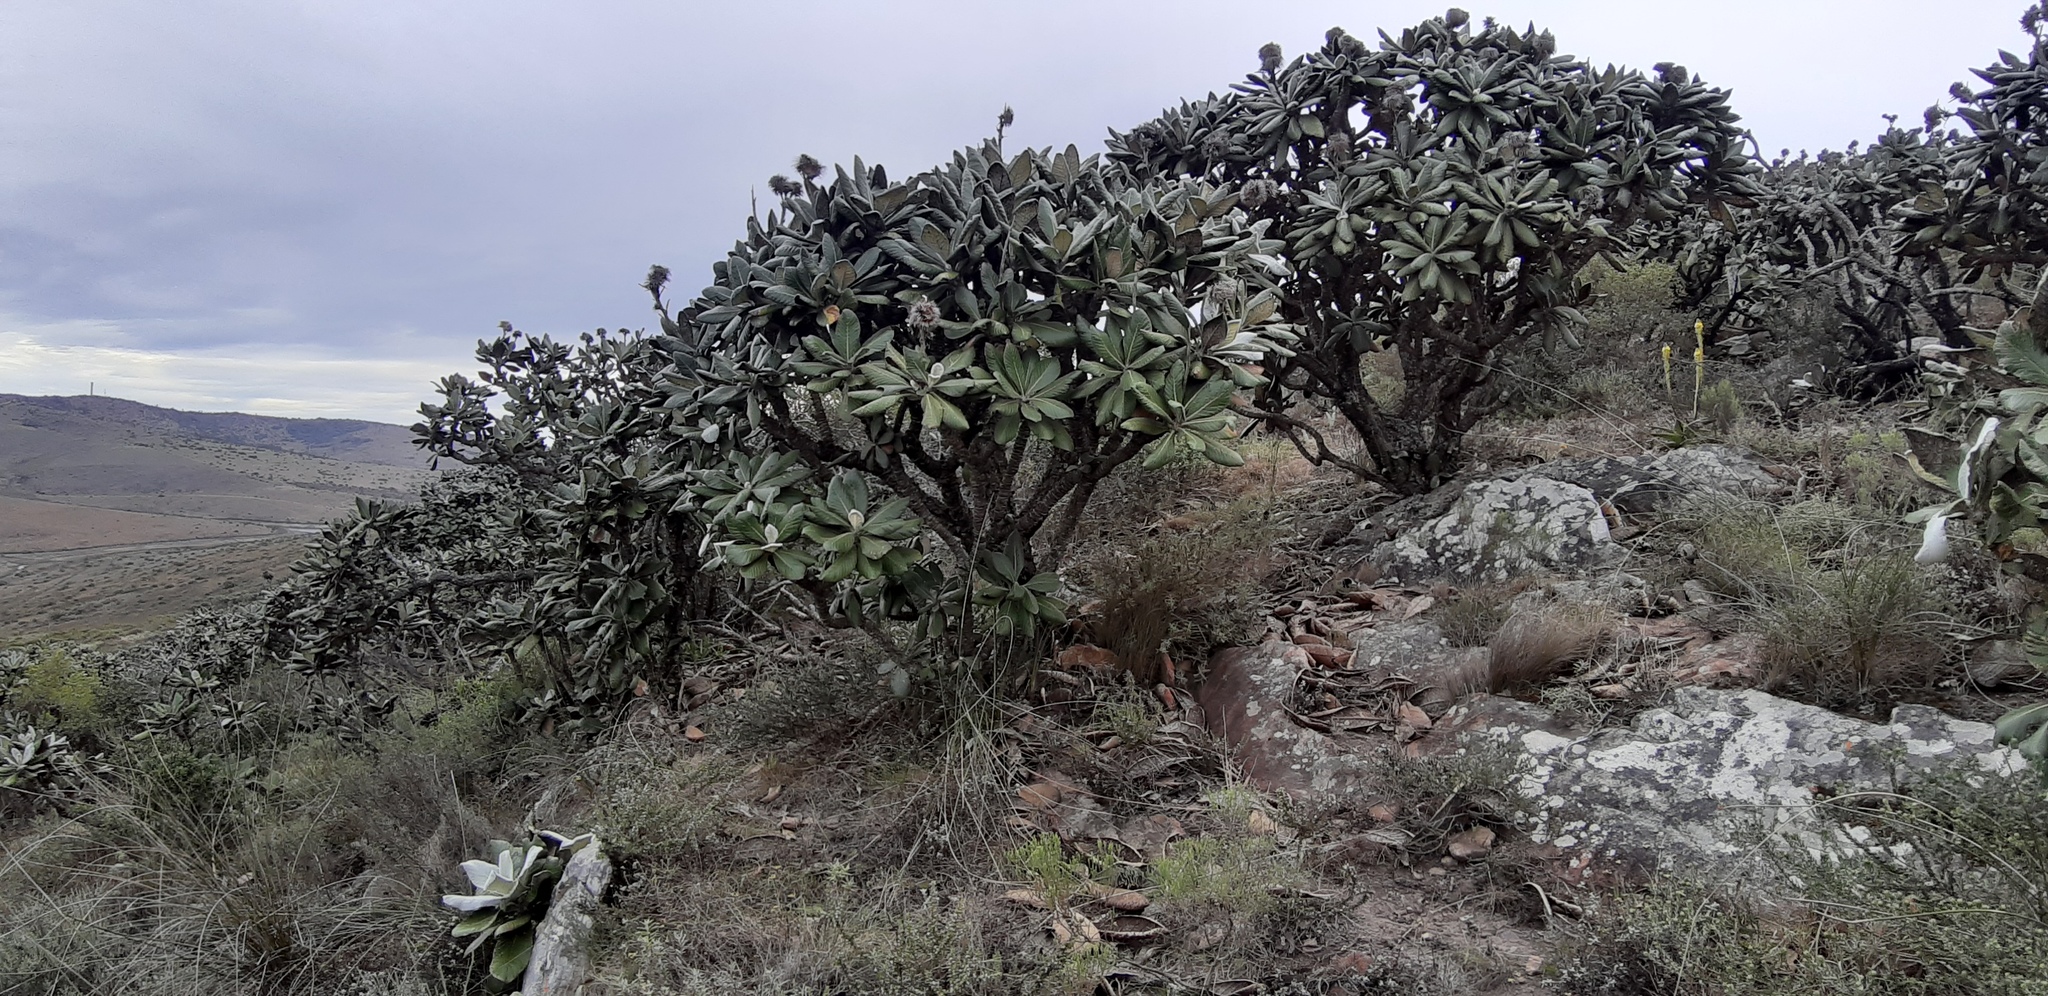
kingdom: Plantae
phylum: Tracheophyta
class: Magnoliopsida
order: Asterales
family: Asteraceae
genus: Oldenburgia
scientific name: Oldenburgia grandis
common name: Suurberg cushion bush
